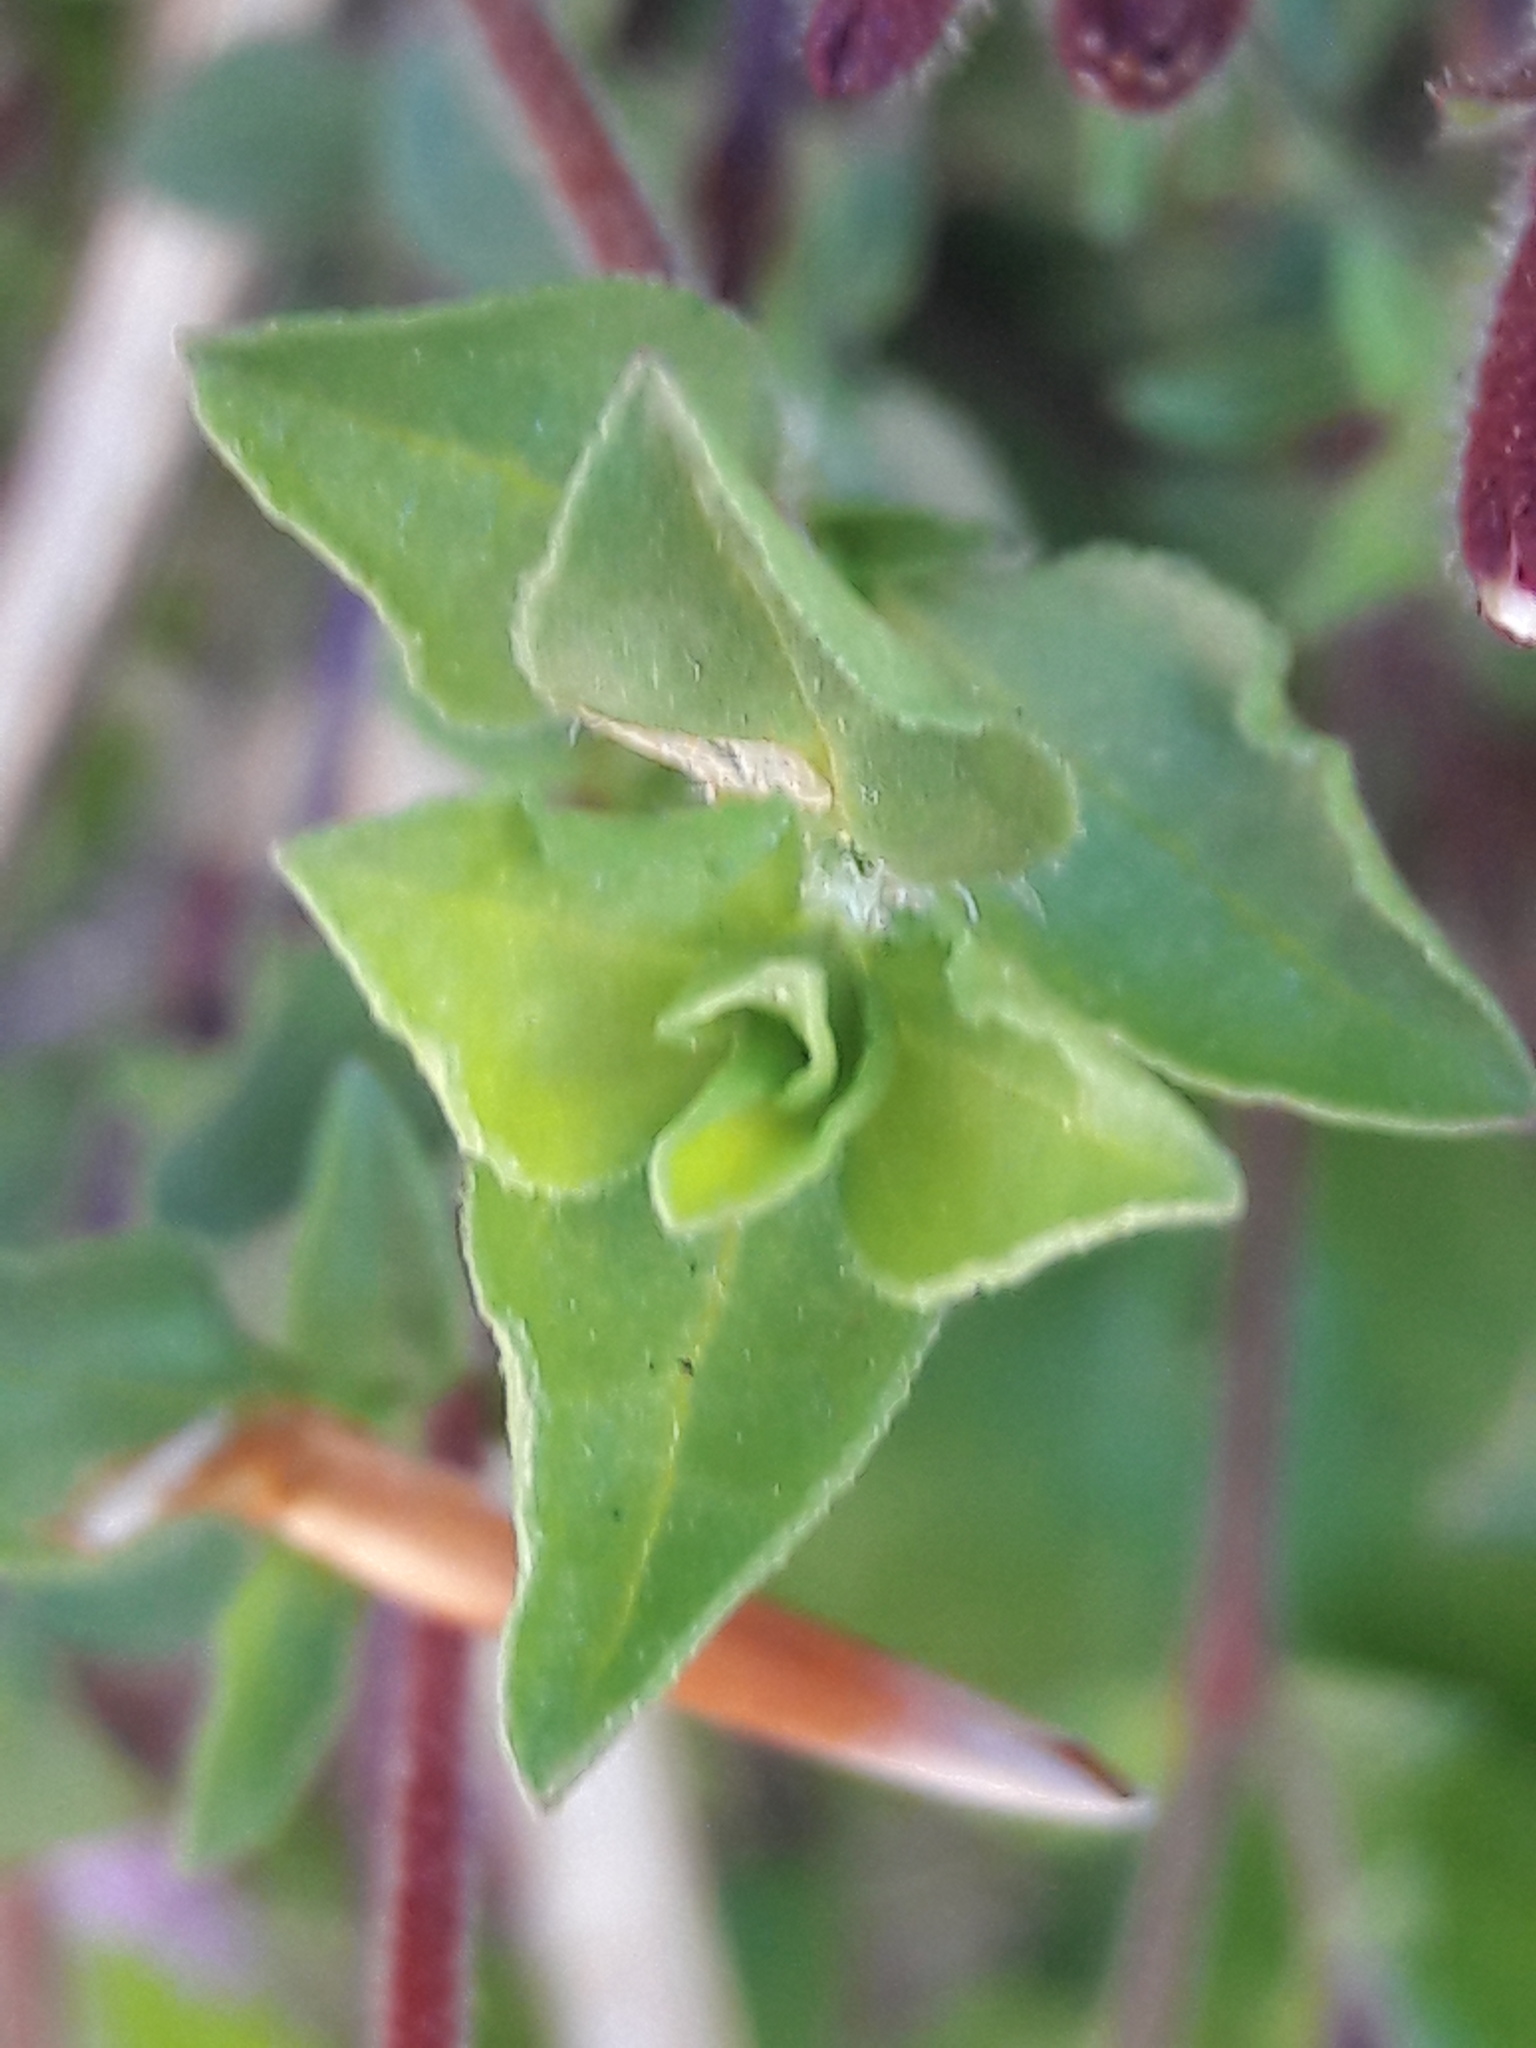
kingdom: Plantae
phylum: Tracheophyta
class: Magnoliopsida
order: Caryophyllales
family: Caryophyllaceae
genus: Saponaria
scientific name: Saponaria ocymoides
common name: Rock soapwort
